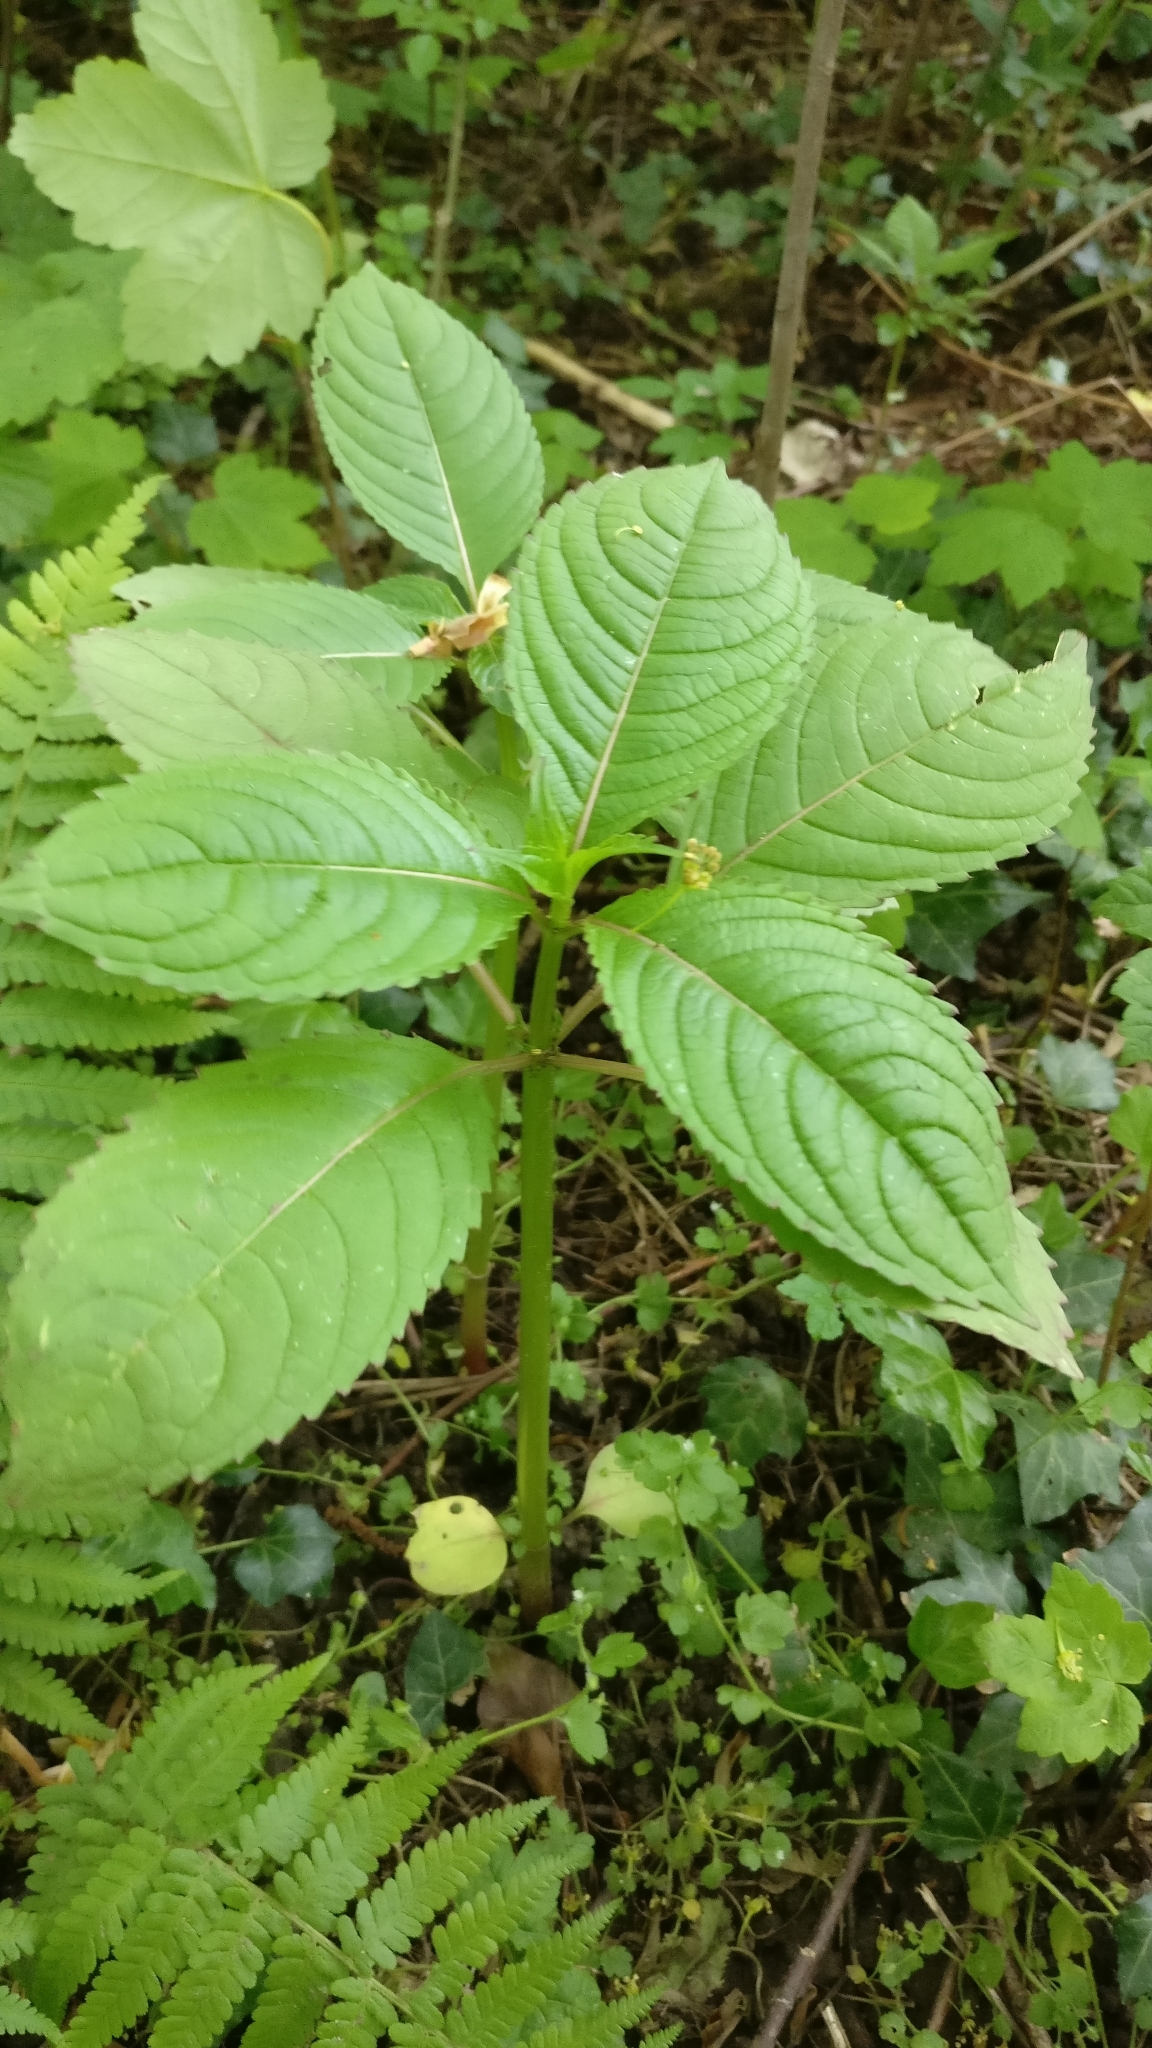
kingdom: Plantae
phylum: Tracheophyta
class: Magnoliopsida
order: Ericales
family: Balsaminaceae
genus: Impatiens
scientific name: Impatiens glandulifera
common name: Himalayan balsam
